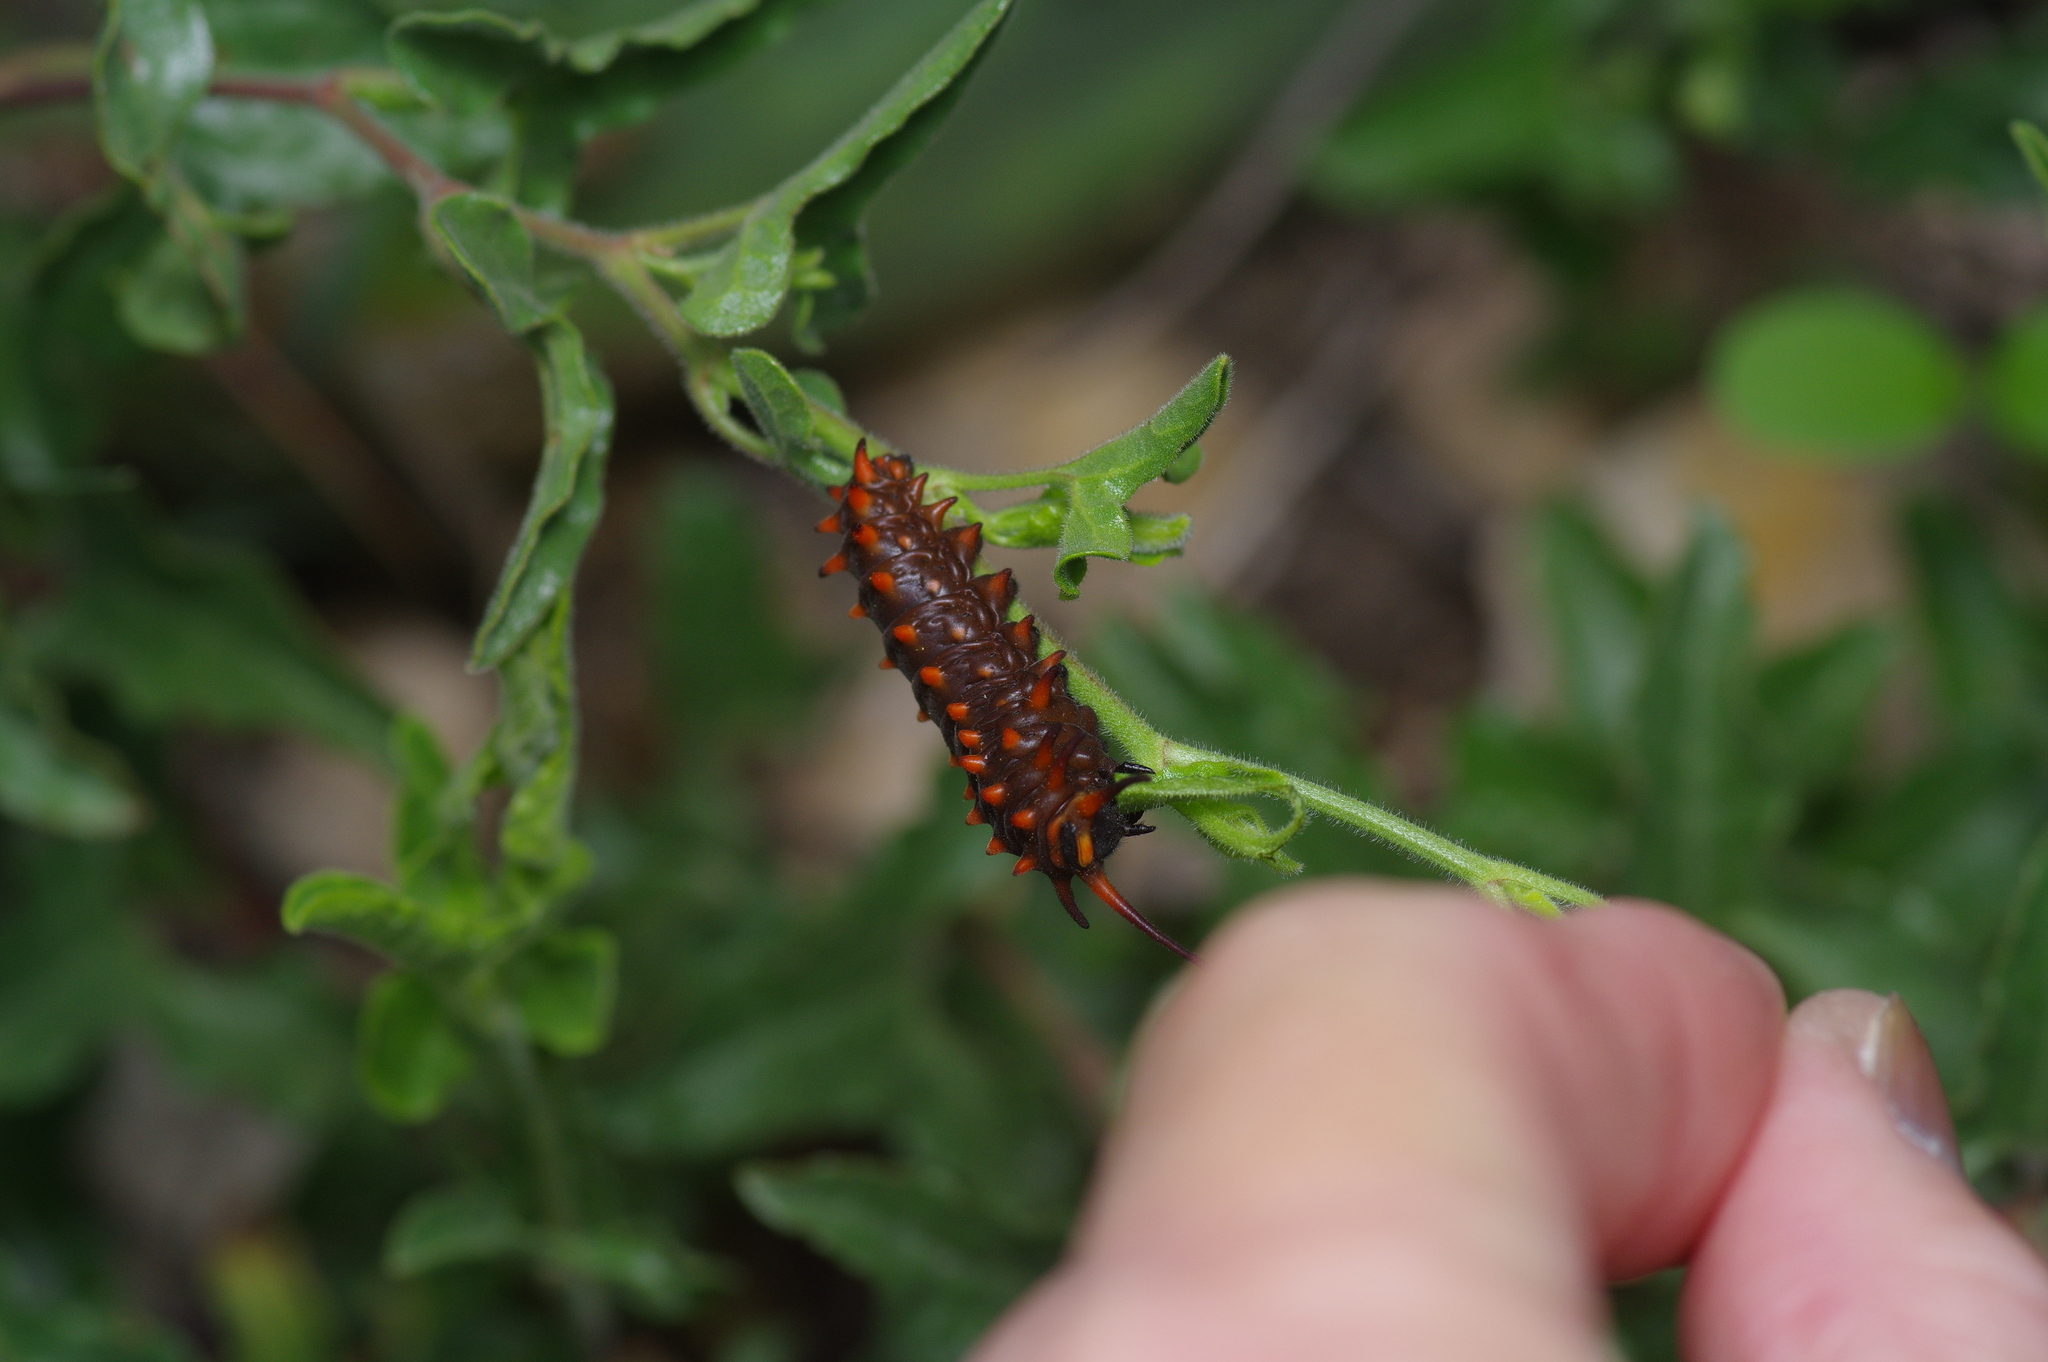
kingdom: Animalia
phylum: Arthropoda
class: Insecta
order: Lepidoptera
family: Papilionidae
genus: Battus
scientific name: Battus philenor
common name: Pipevine swallowtail
